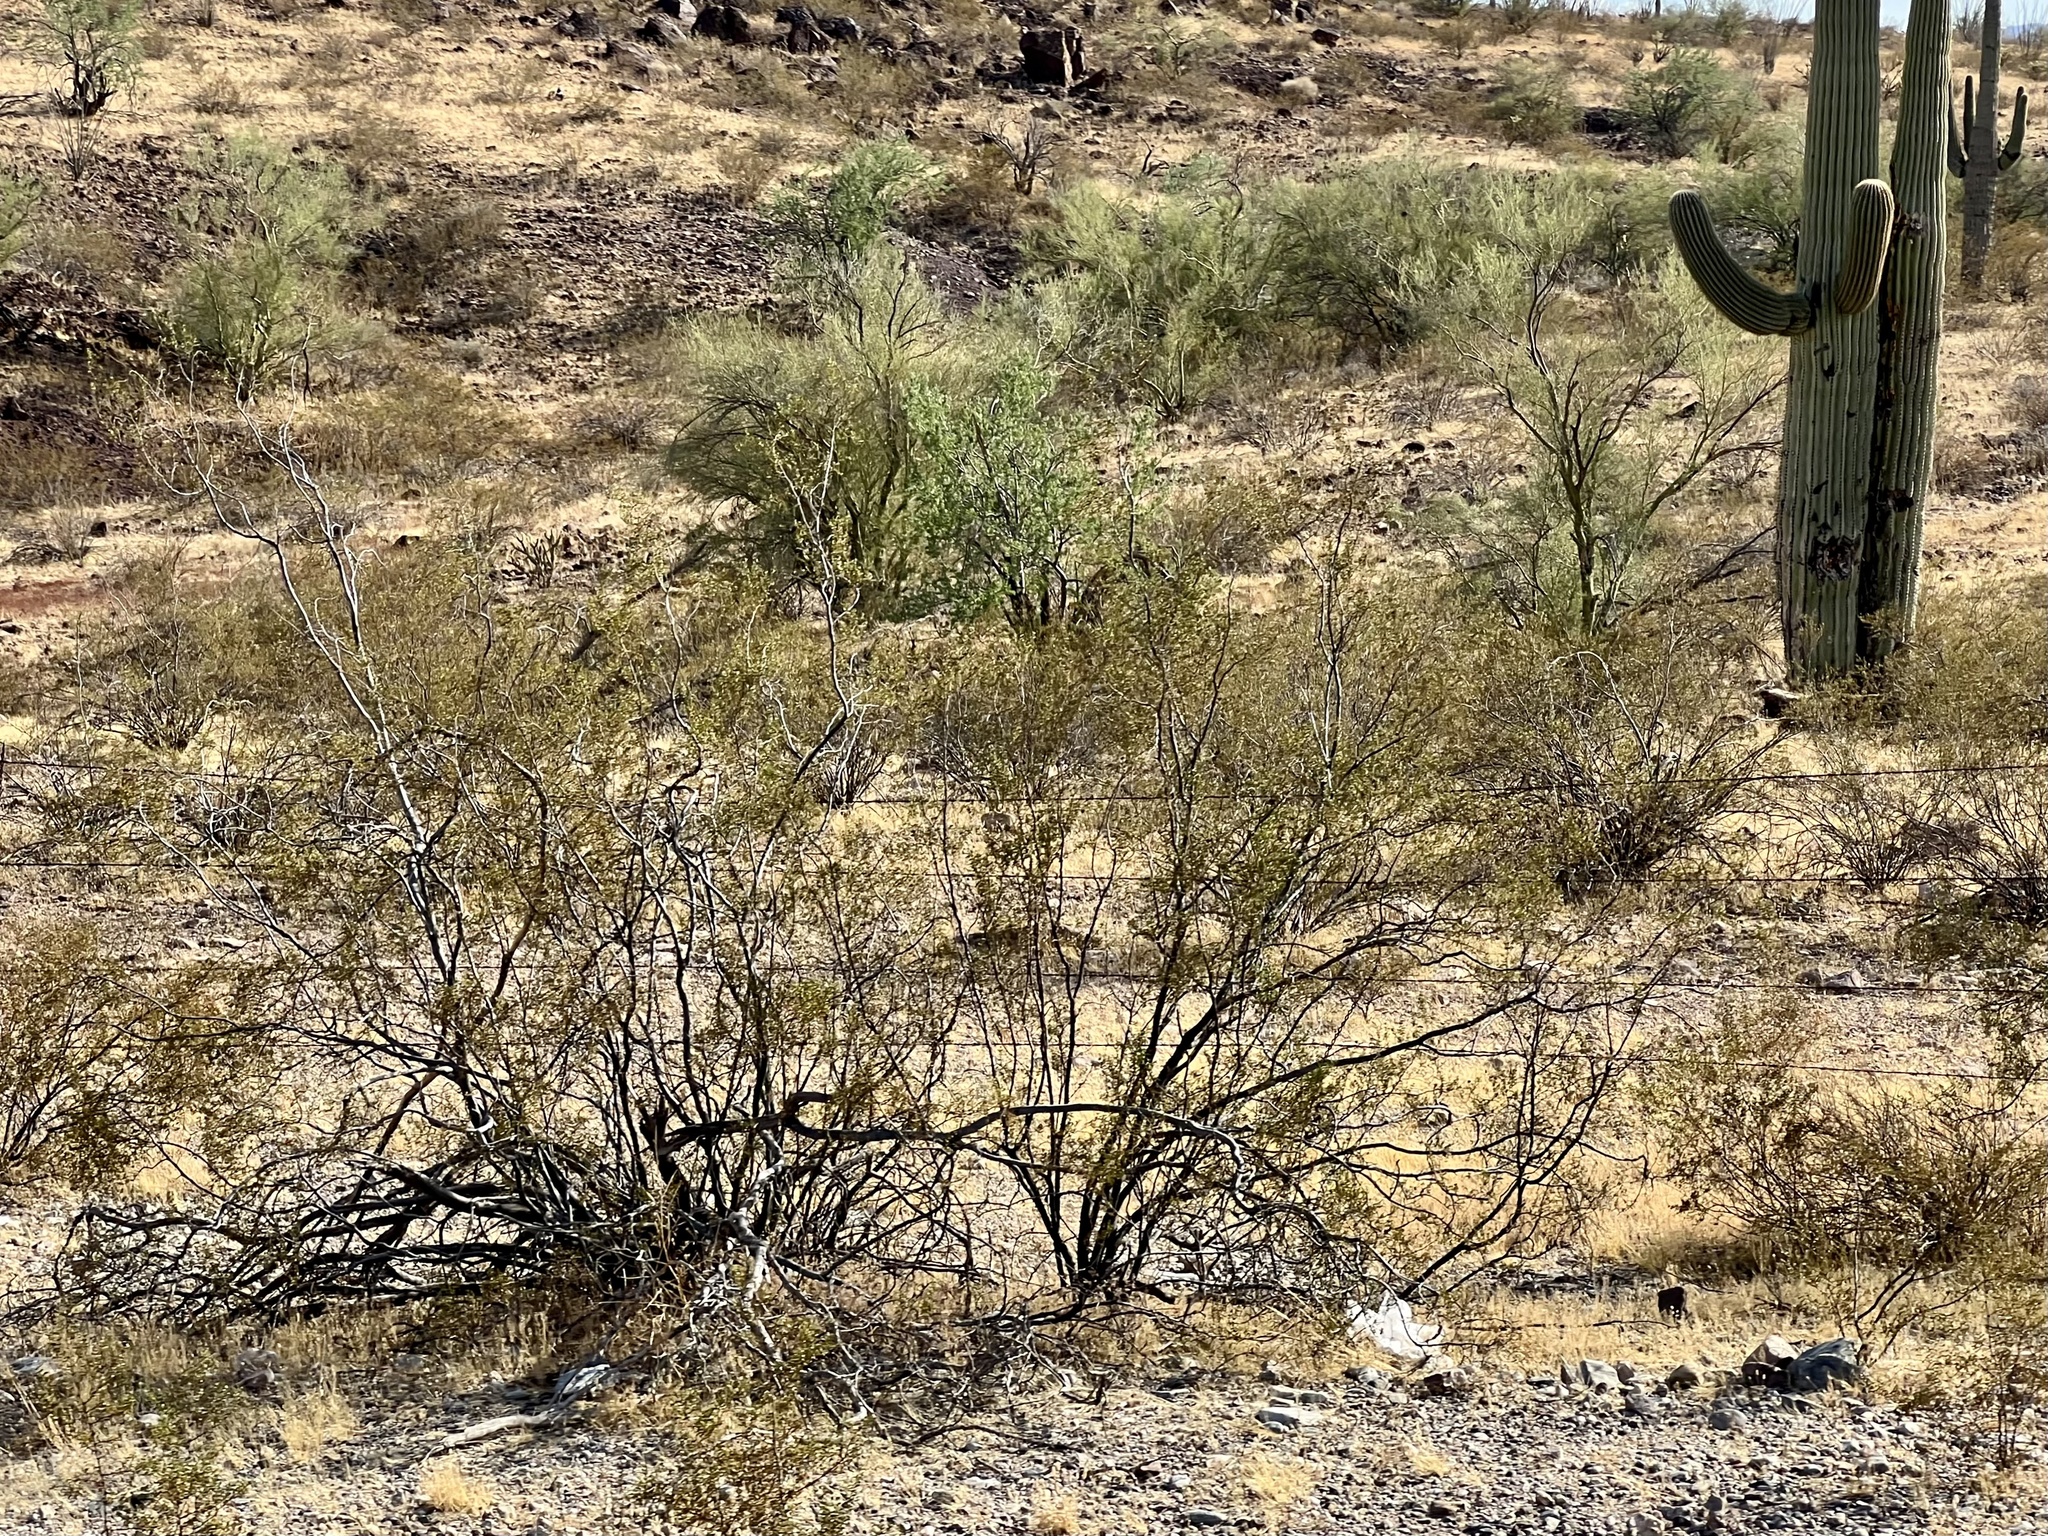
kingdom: Plantae
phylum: Tracheophyta
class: Magnoliopsida
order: Zygophyllales
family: Zygophyllaceae
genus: Larrea
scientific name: Larrea tridentata
